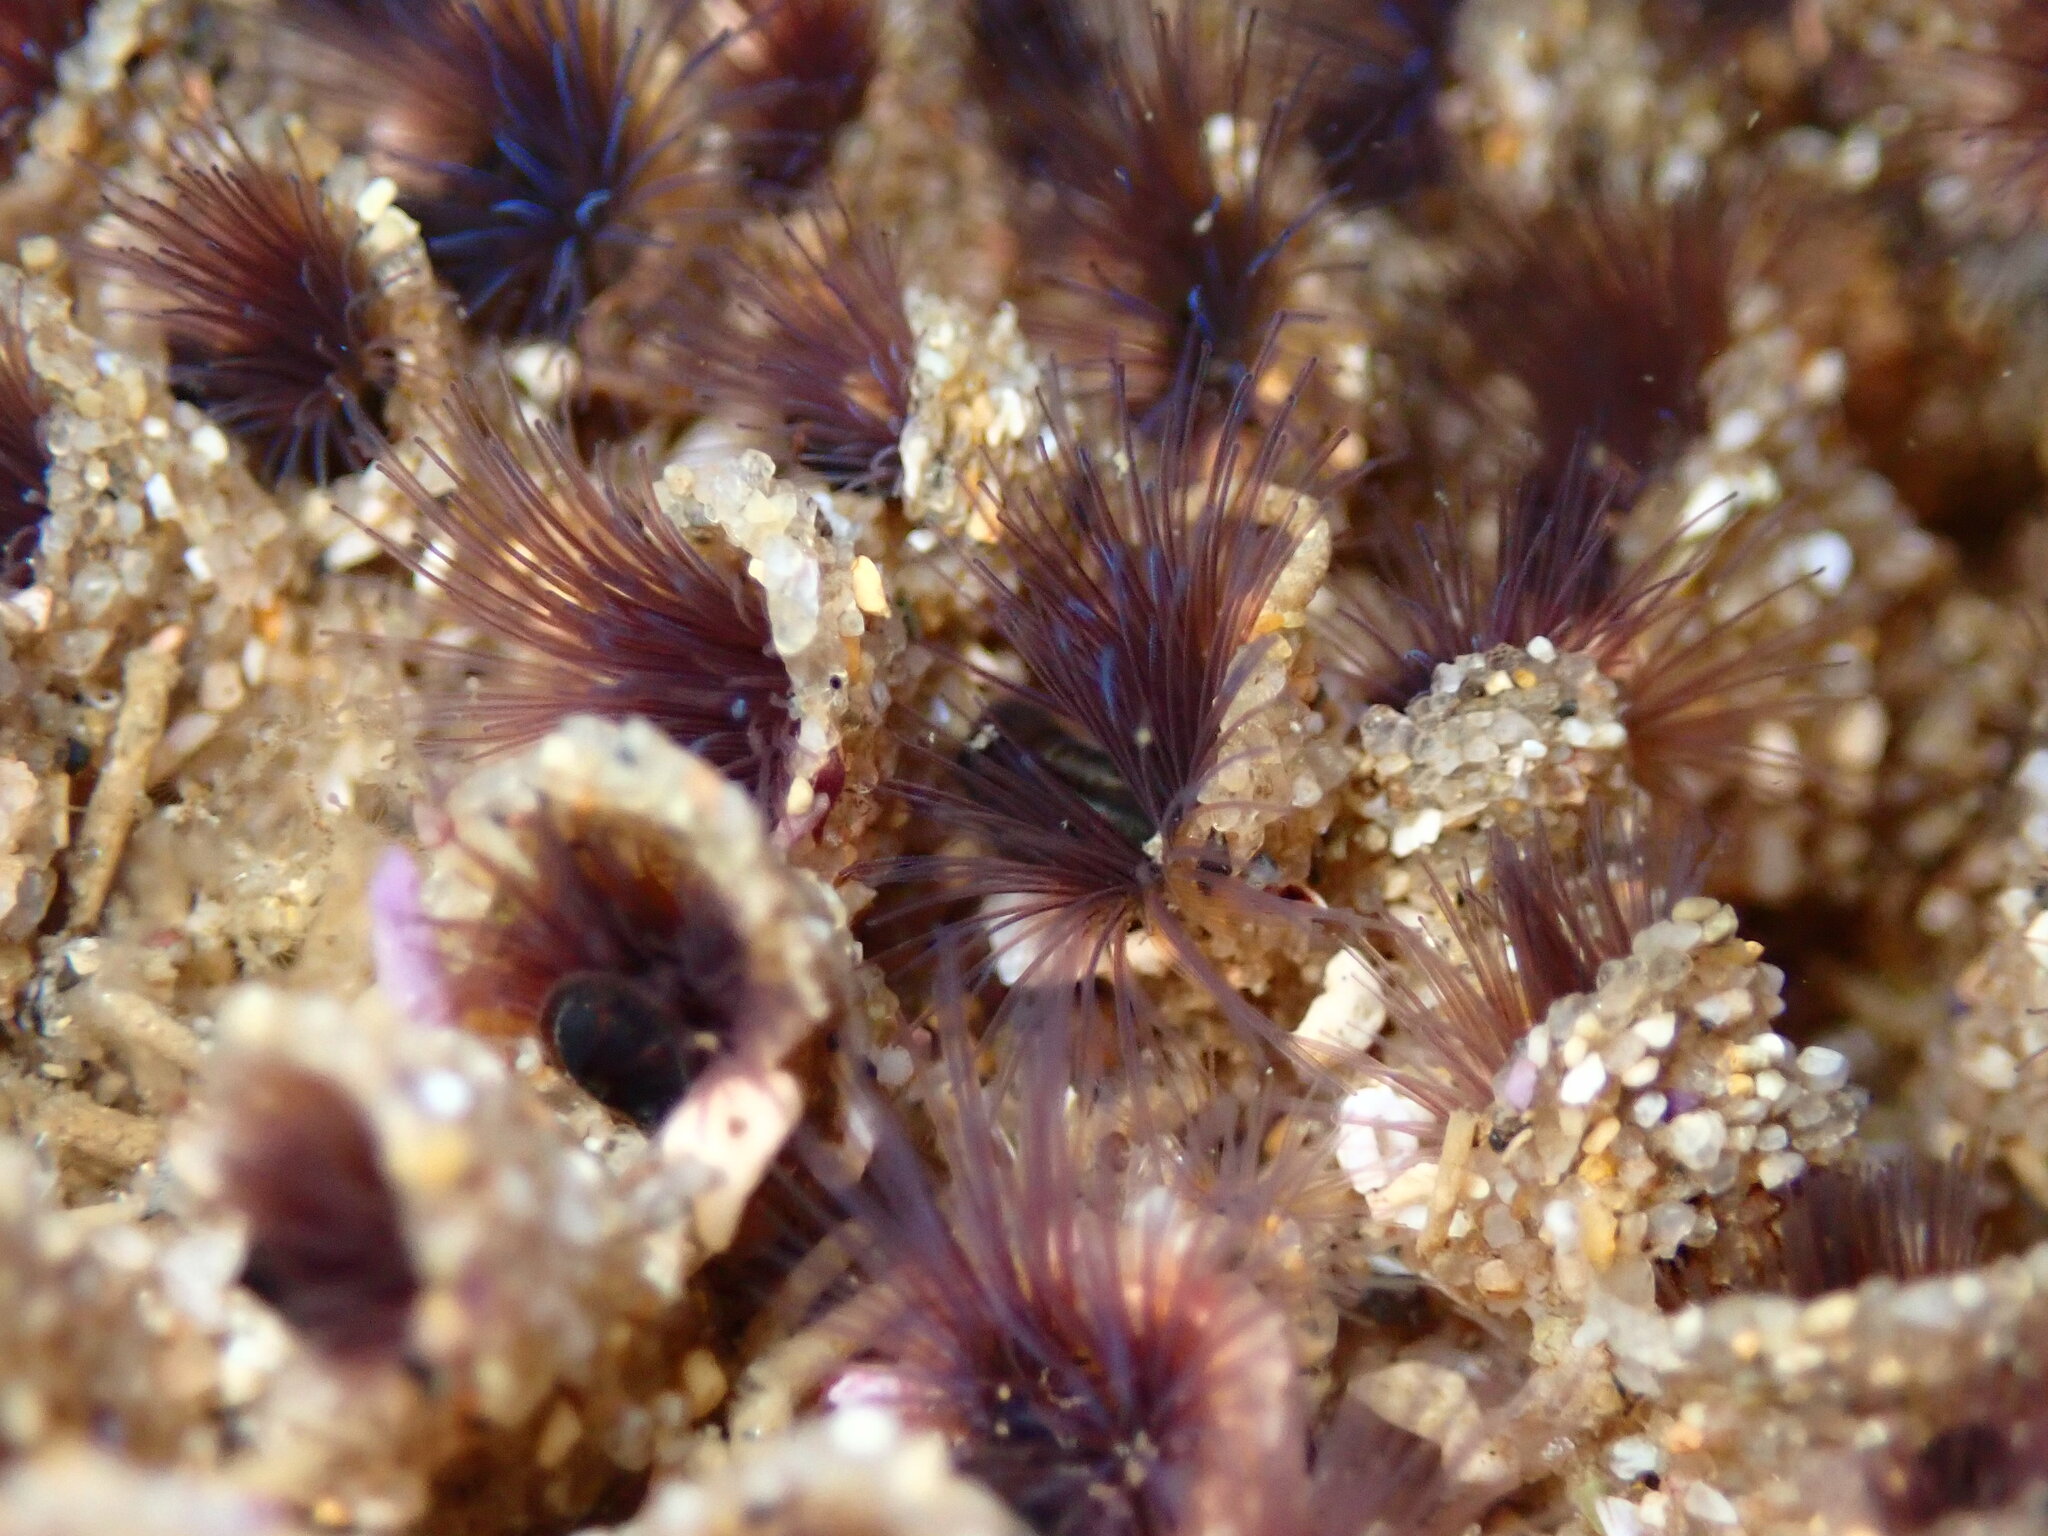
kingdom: Animalia
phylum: Annelida
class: Polychaeta
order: Sabellida
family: Sabellariidae
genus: Phragmatopoma
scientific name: Phragmatopoma californica
